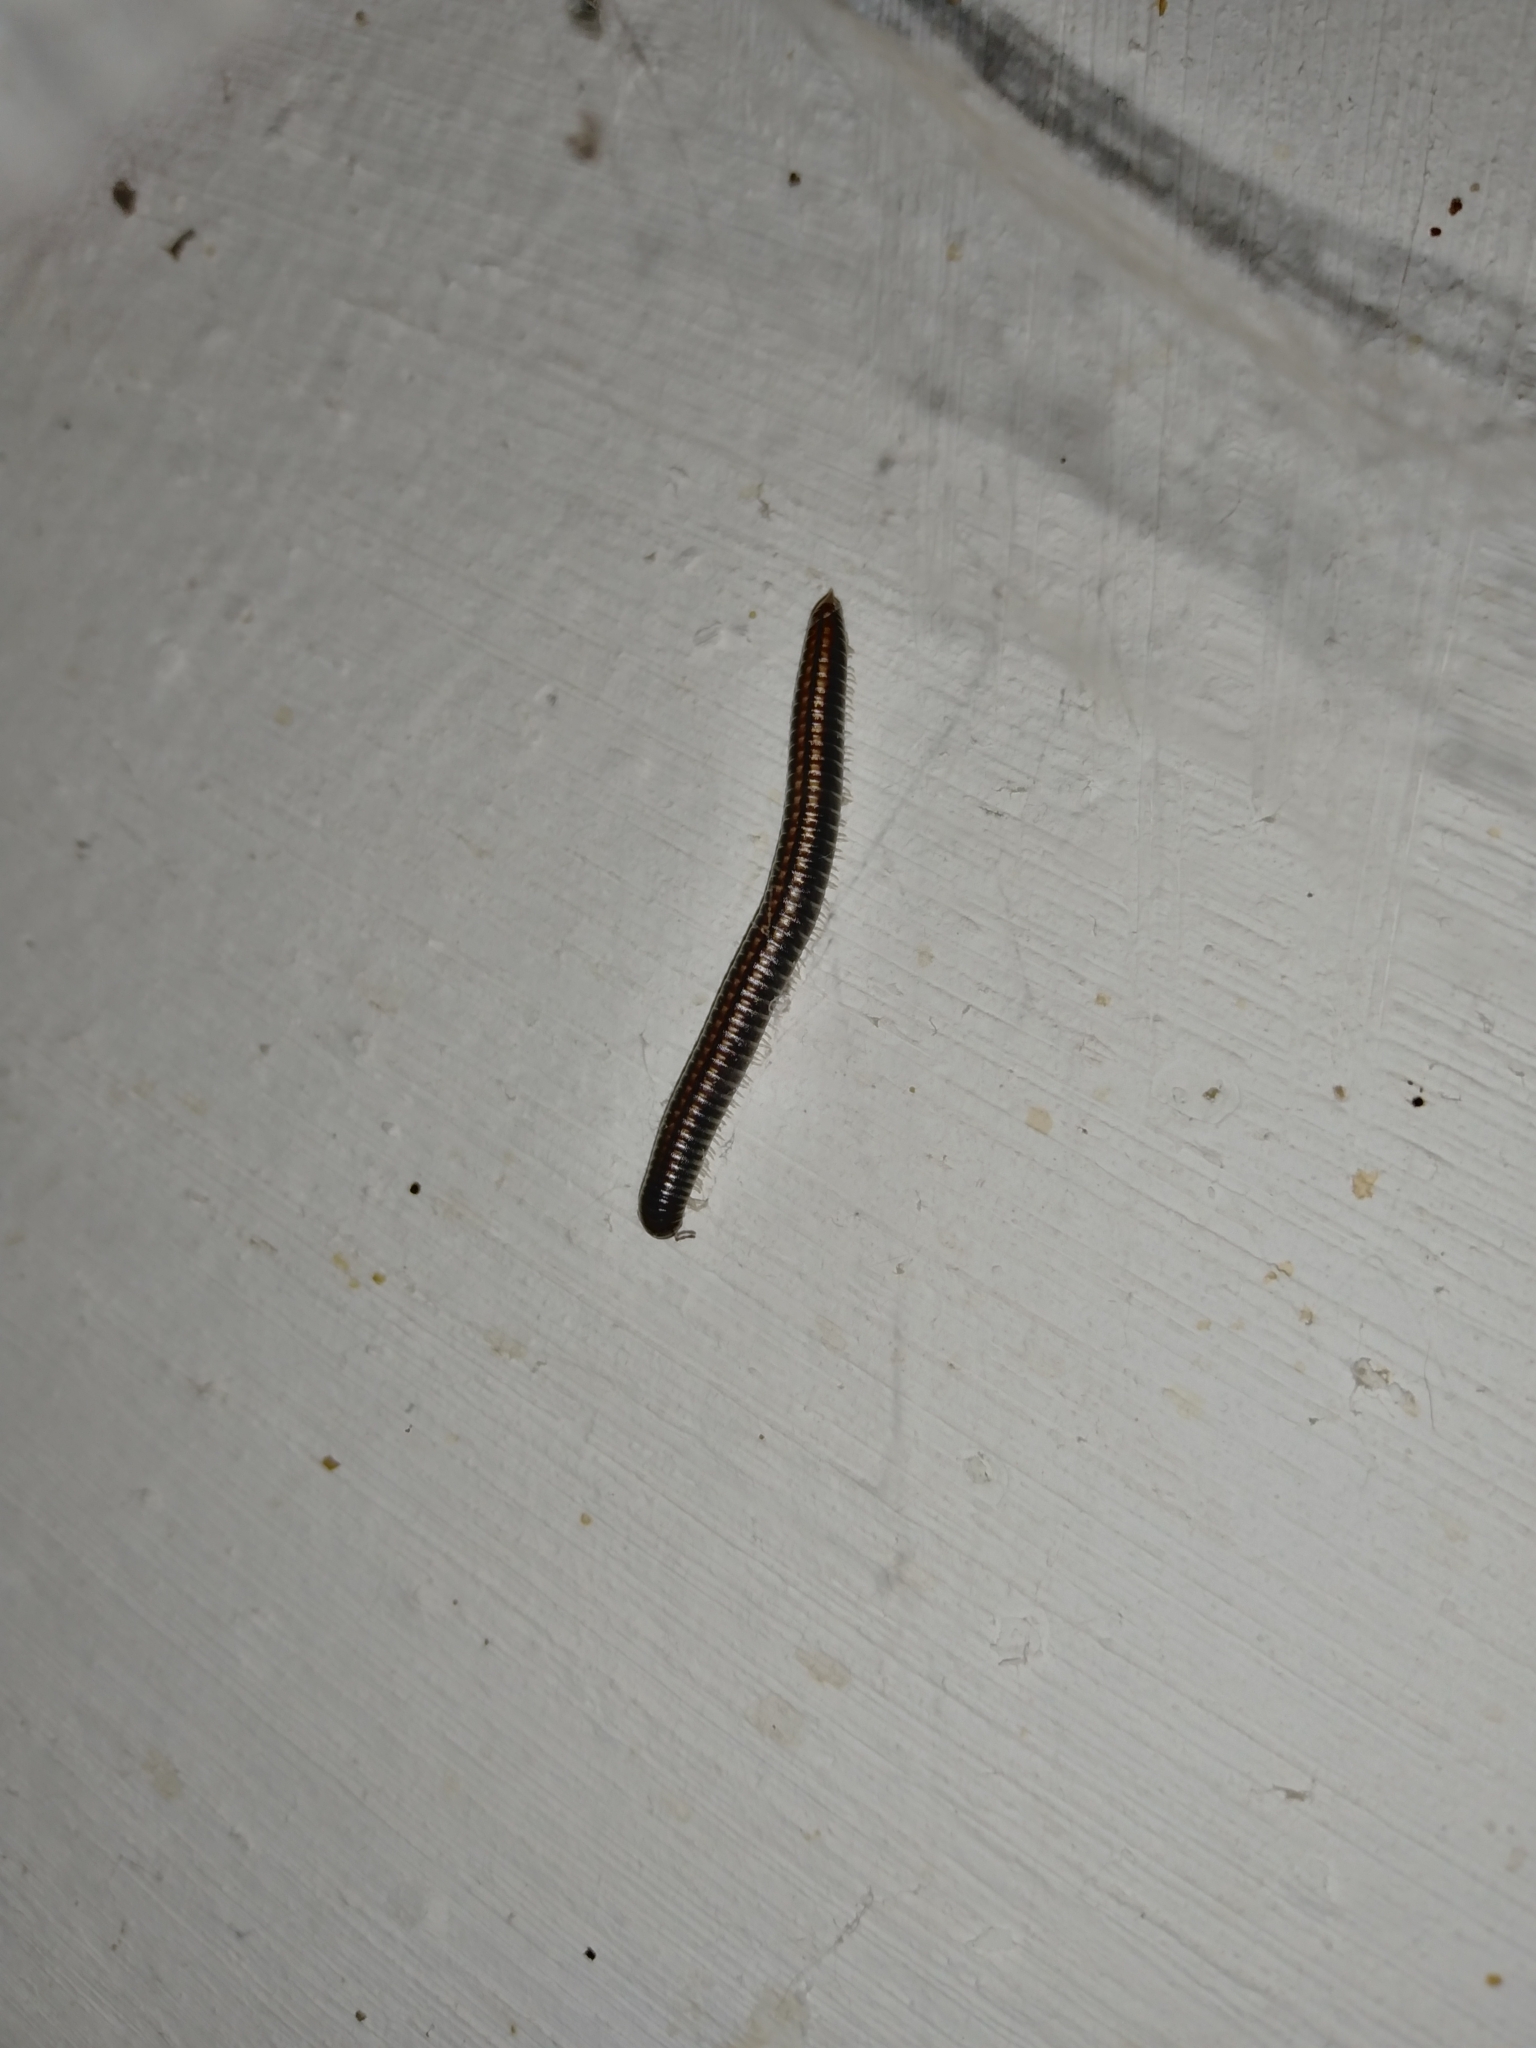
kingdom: Animalia
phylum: Arthropoda
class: Diplopoda
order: Julida
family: Julidae
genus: Ommatoiulus
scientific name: Ommatoiulus sabulosus
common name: Striped millipede
